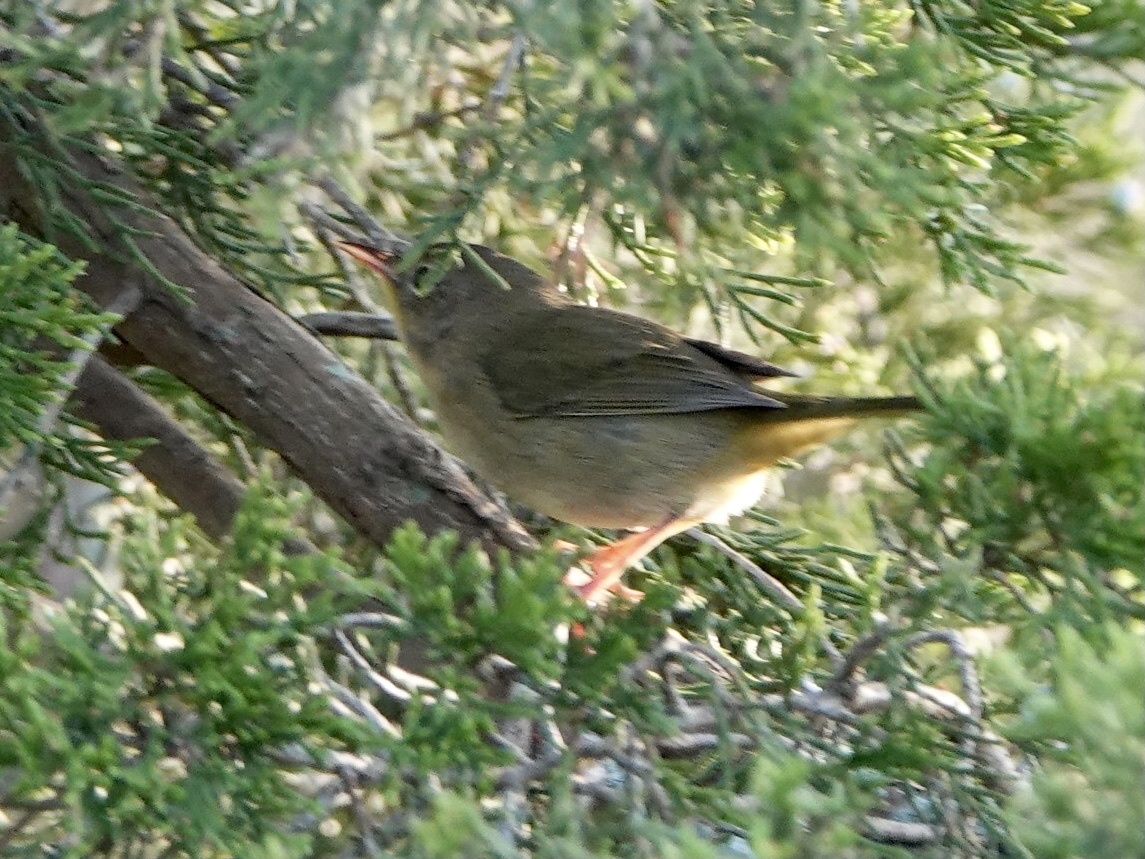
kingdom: Animalia
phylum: Chordata
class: Aves
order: Passeriformes
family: Parulidae
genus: Geothlypis
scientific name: Geothlypis trichas
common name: Common yellowthroat
